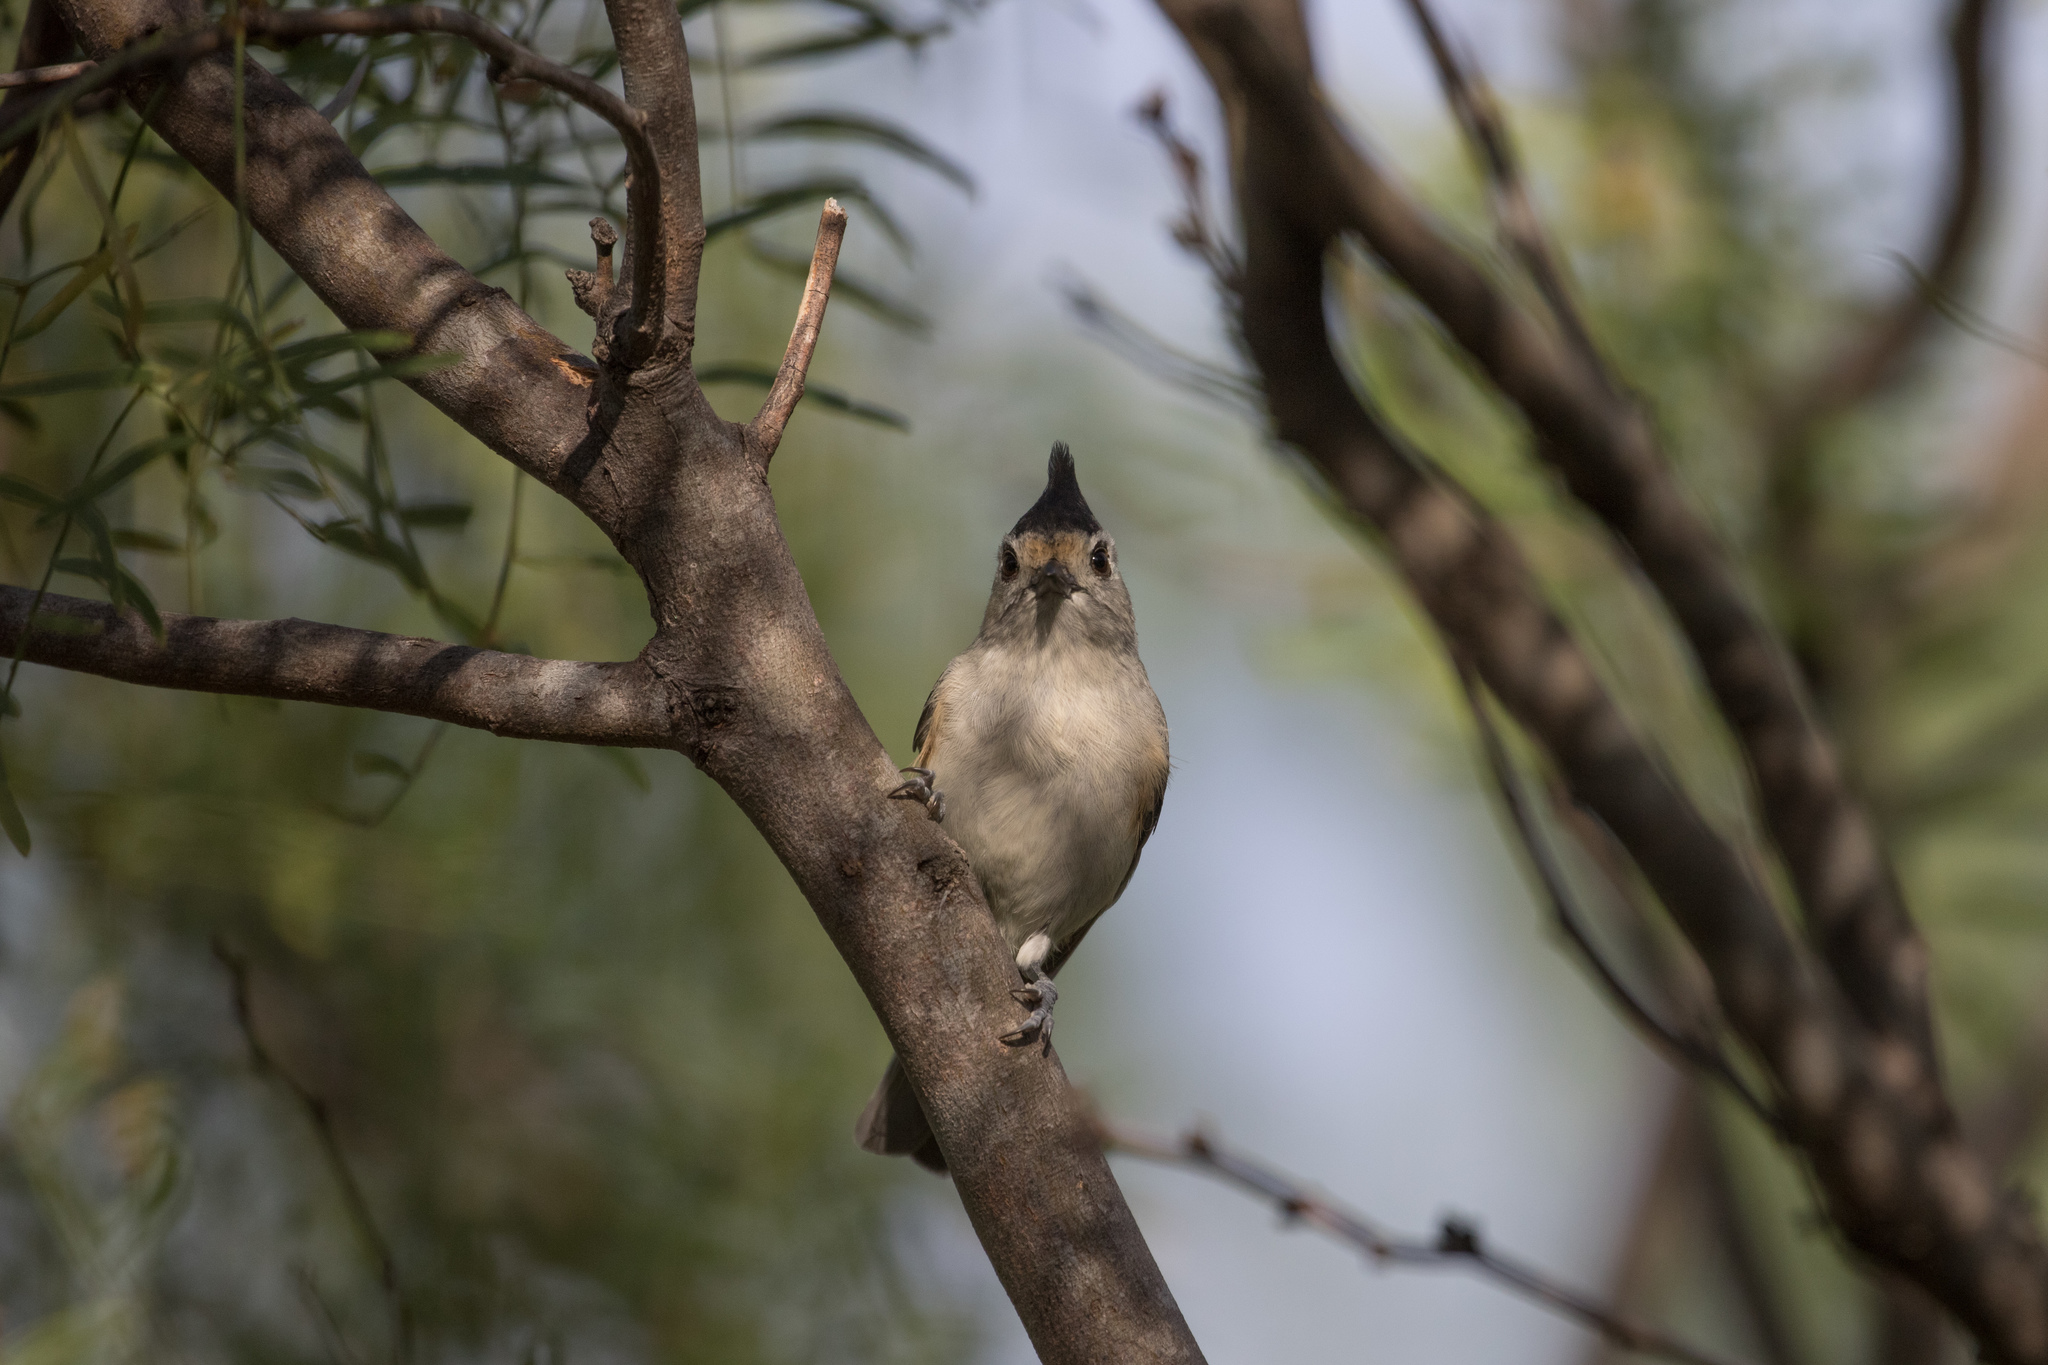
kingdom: Animalia
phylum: Chordata
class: Aves
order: Passeriformes
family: Paridae
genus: Baeolophus
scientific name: Baeolophus atricristatus
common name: Black-crested titmouse
